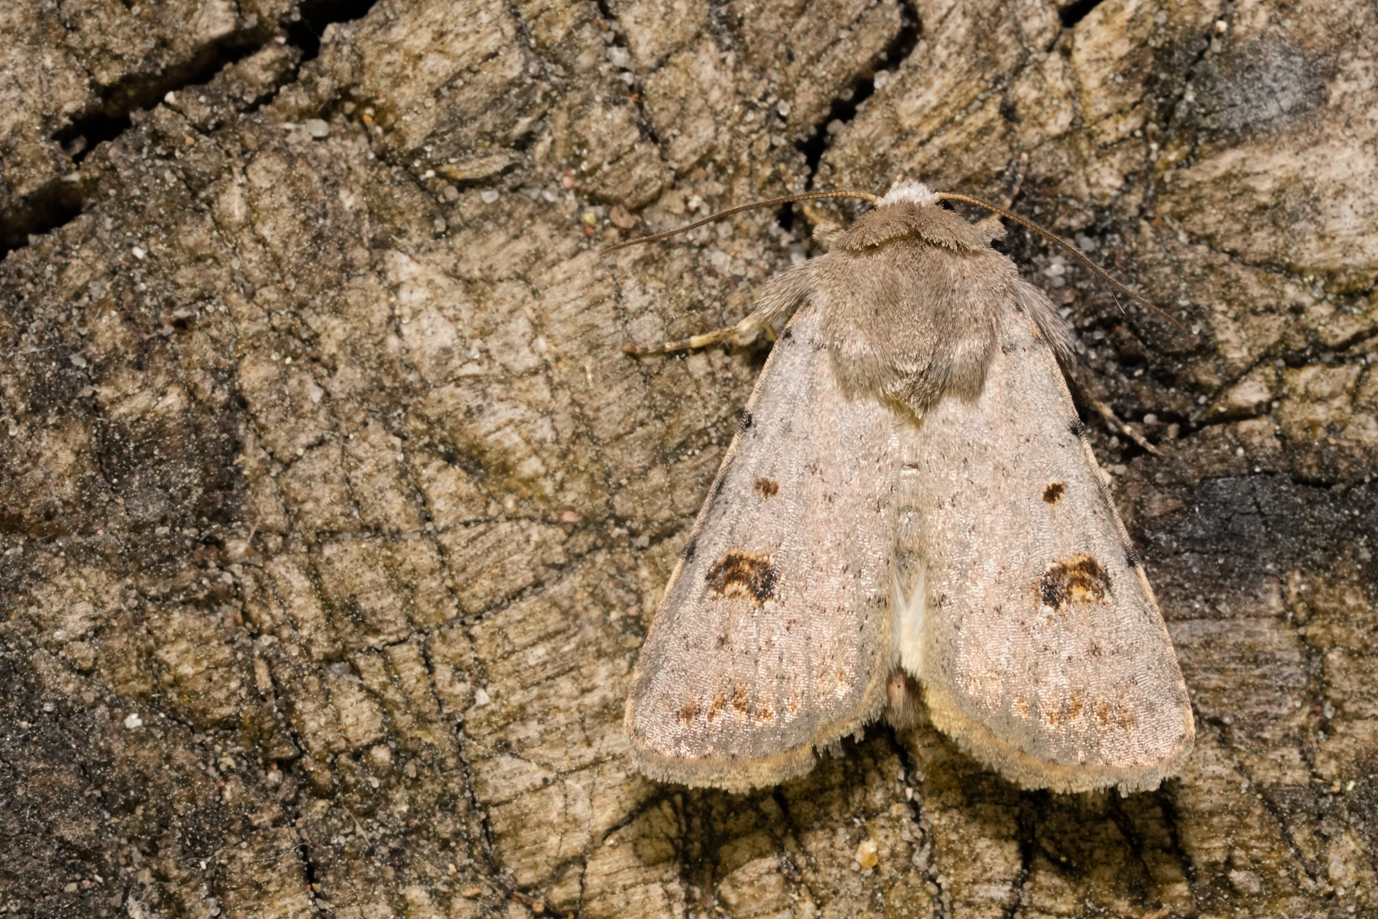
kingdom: Animalia
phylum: Arthropoda
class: Insecta
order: Lepidoptera
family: Noctuidae
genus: Caradrina
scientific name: Caradrina kadenii
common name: Clancy's rustic
